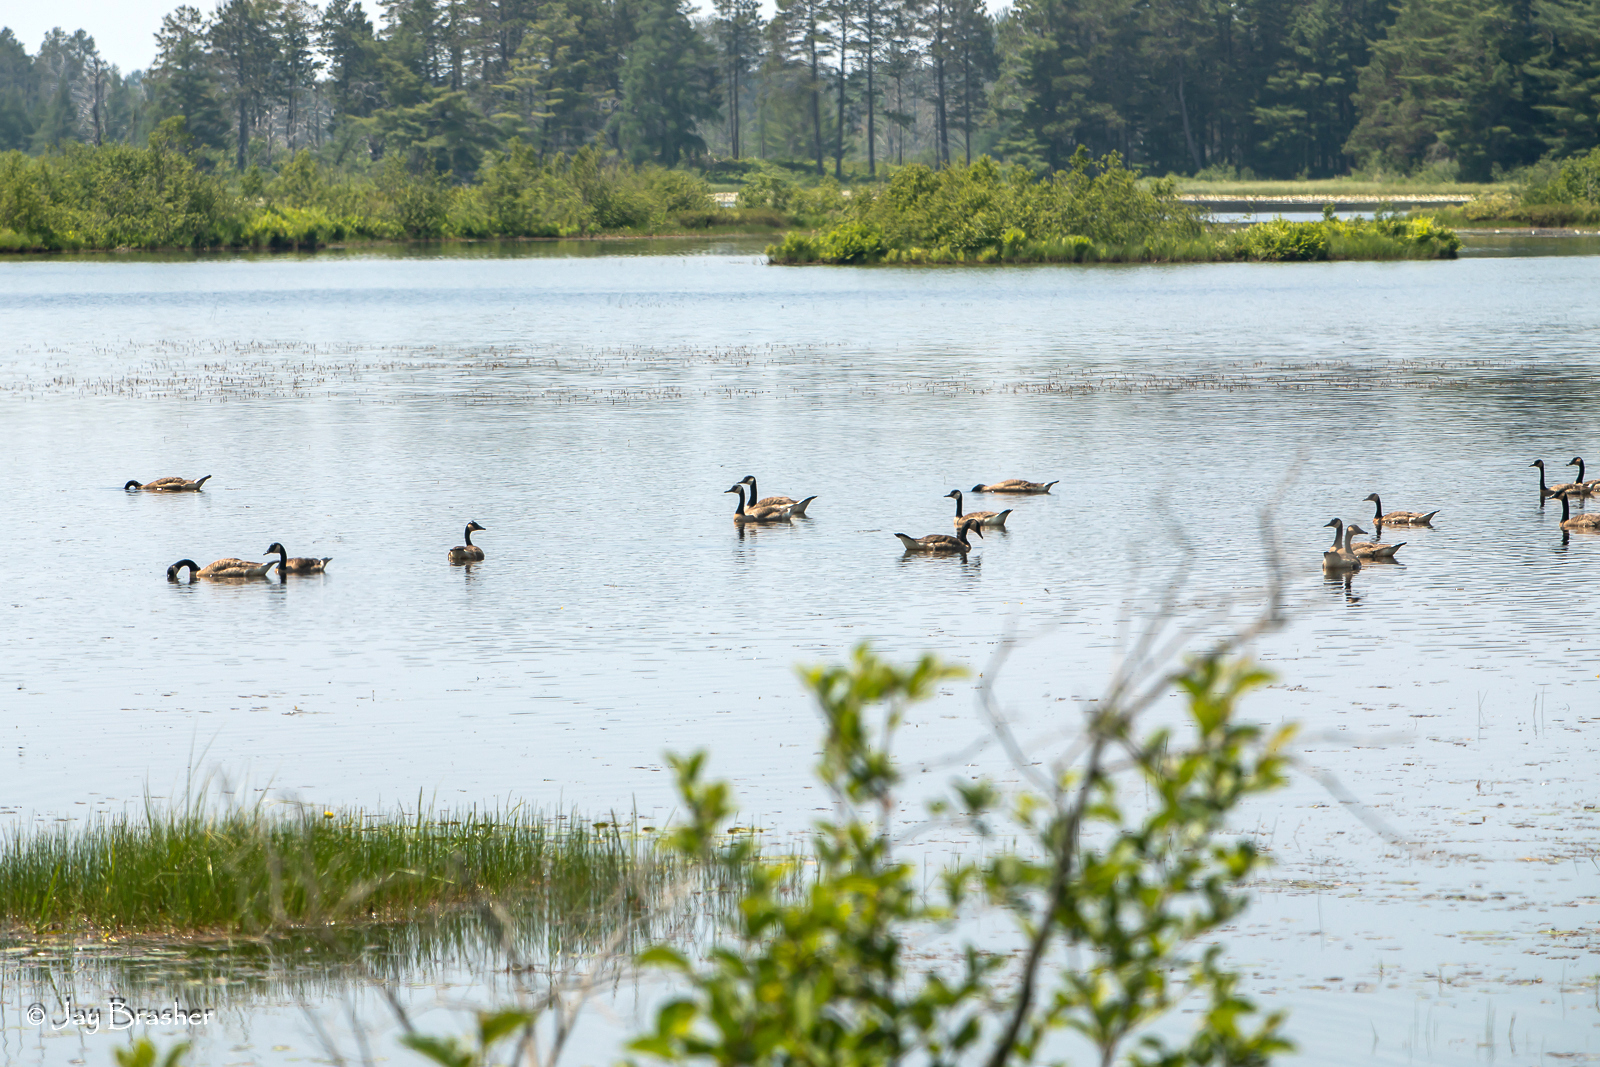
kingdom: Animalia
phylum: Chordata
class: Aves
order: Anseriformes
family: Anatidae
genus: Branta
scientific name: Branta canadensis
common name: Canada goose
